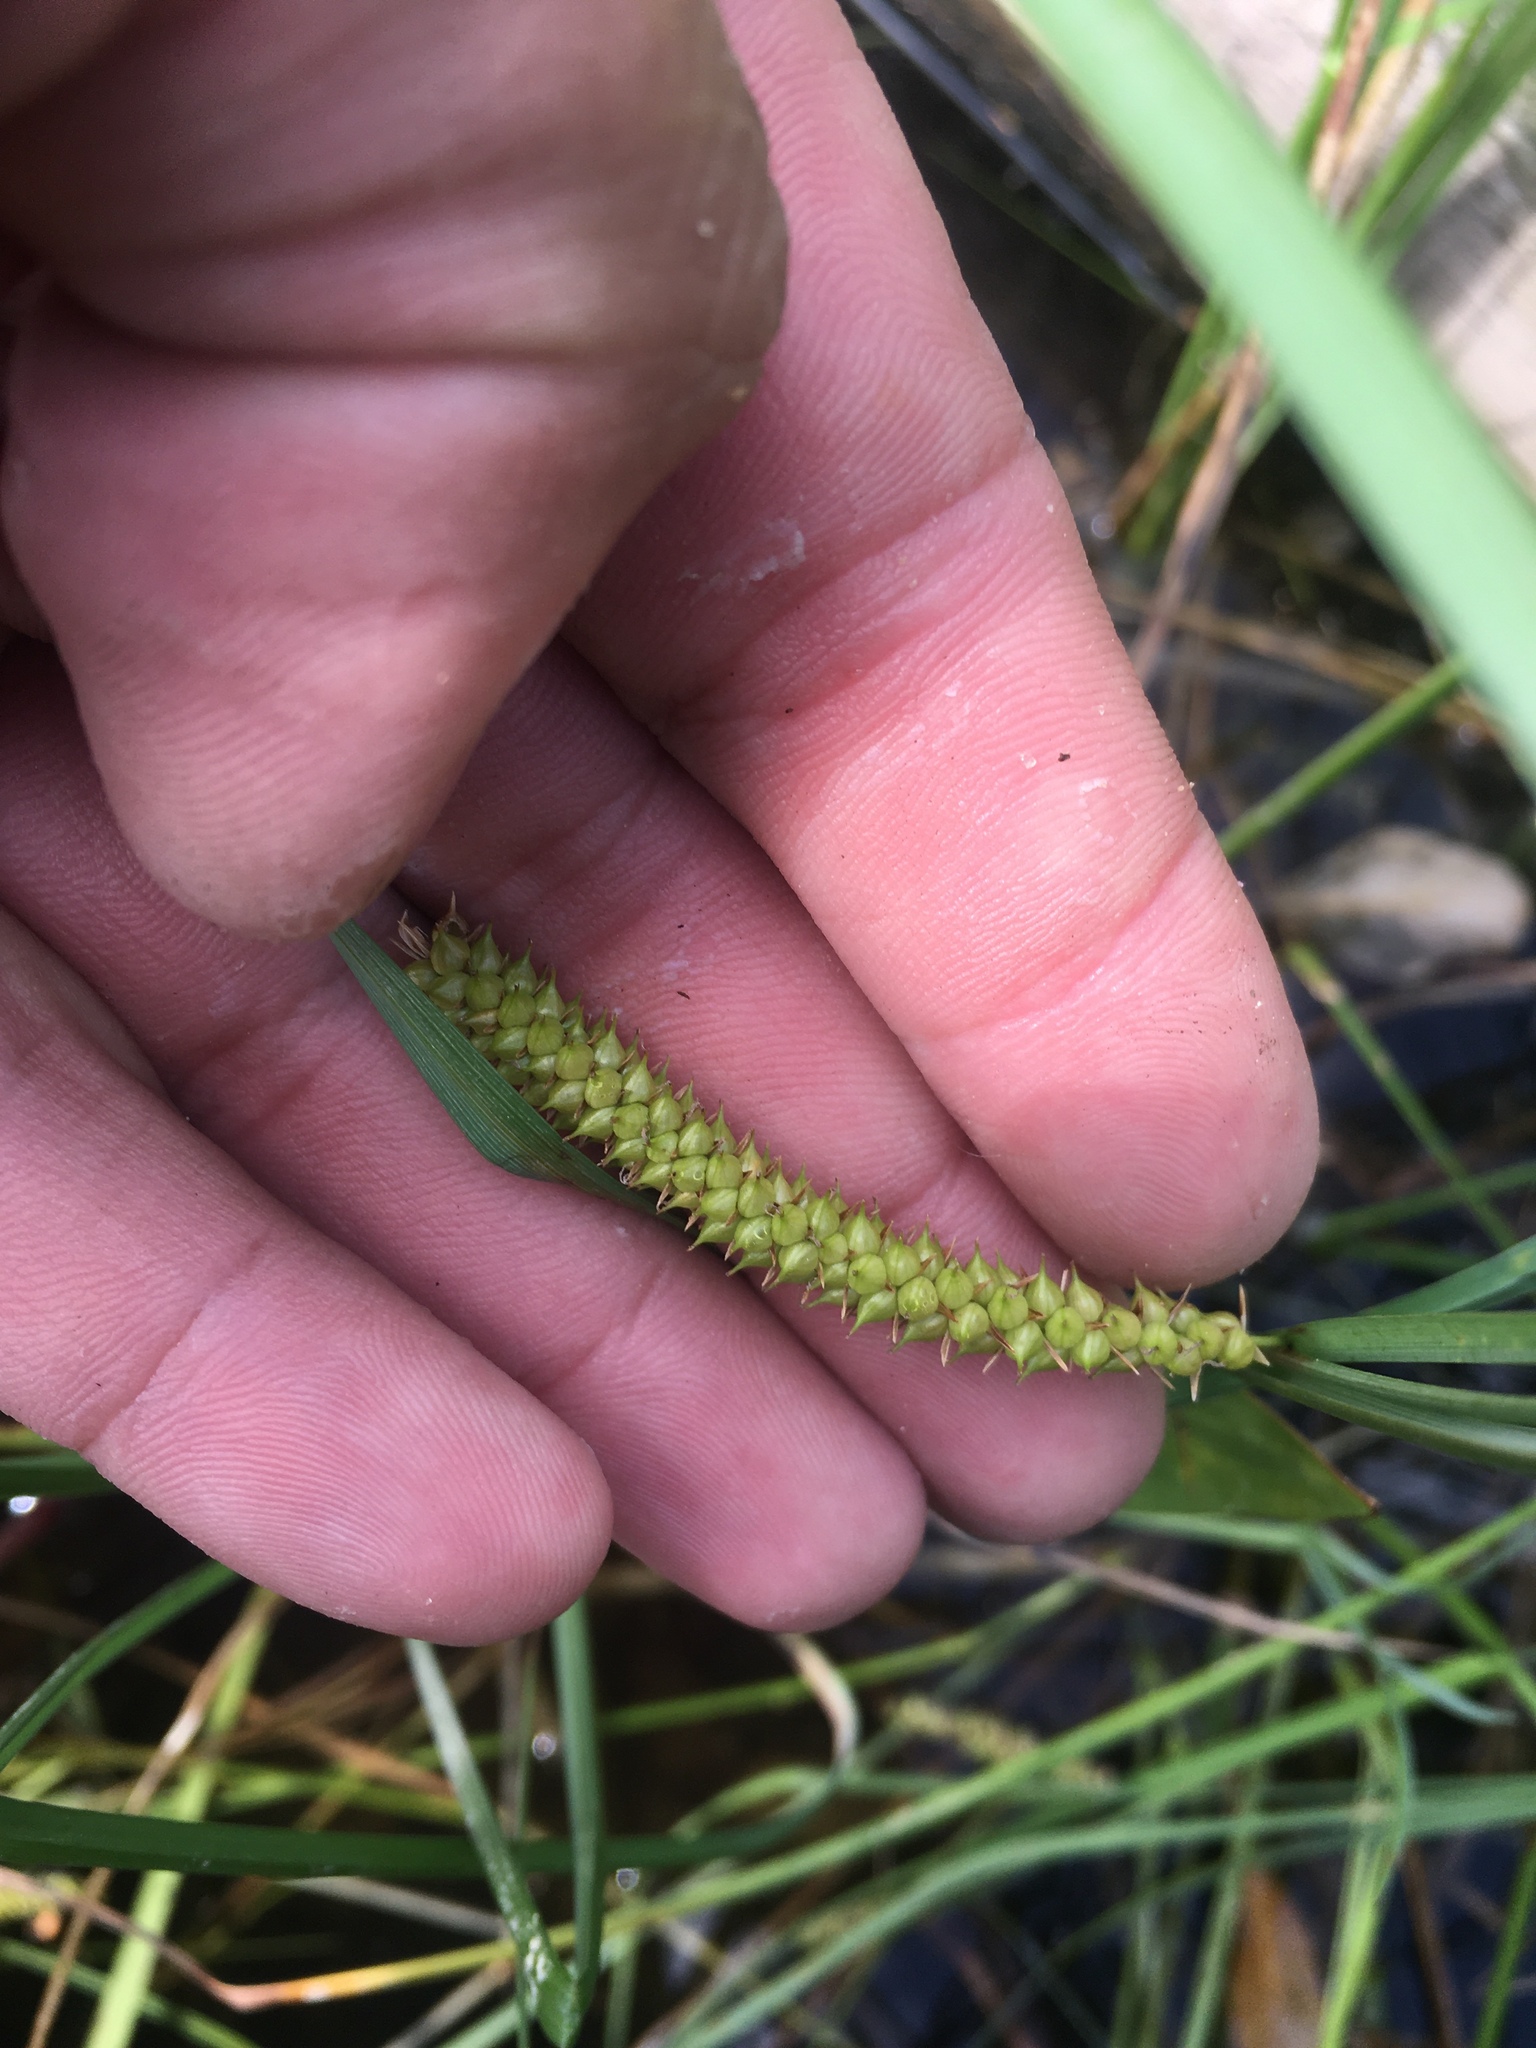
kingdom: Plantae
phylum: Tracheophyta
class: Liliopsida
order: Poales
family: Cyperaceae
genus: Carex
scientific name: Carex rostrata
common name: Bottle sedge
